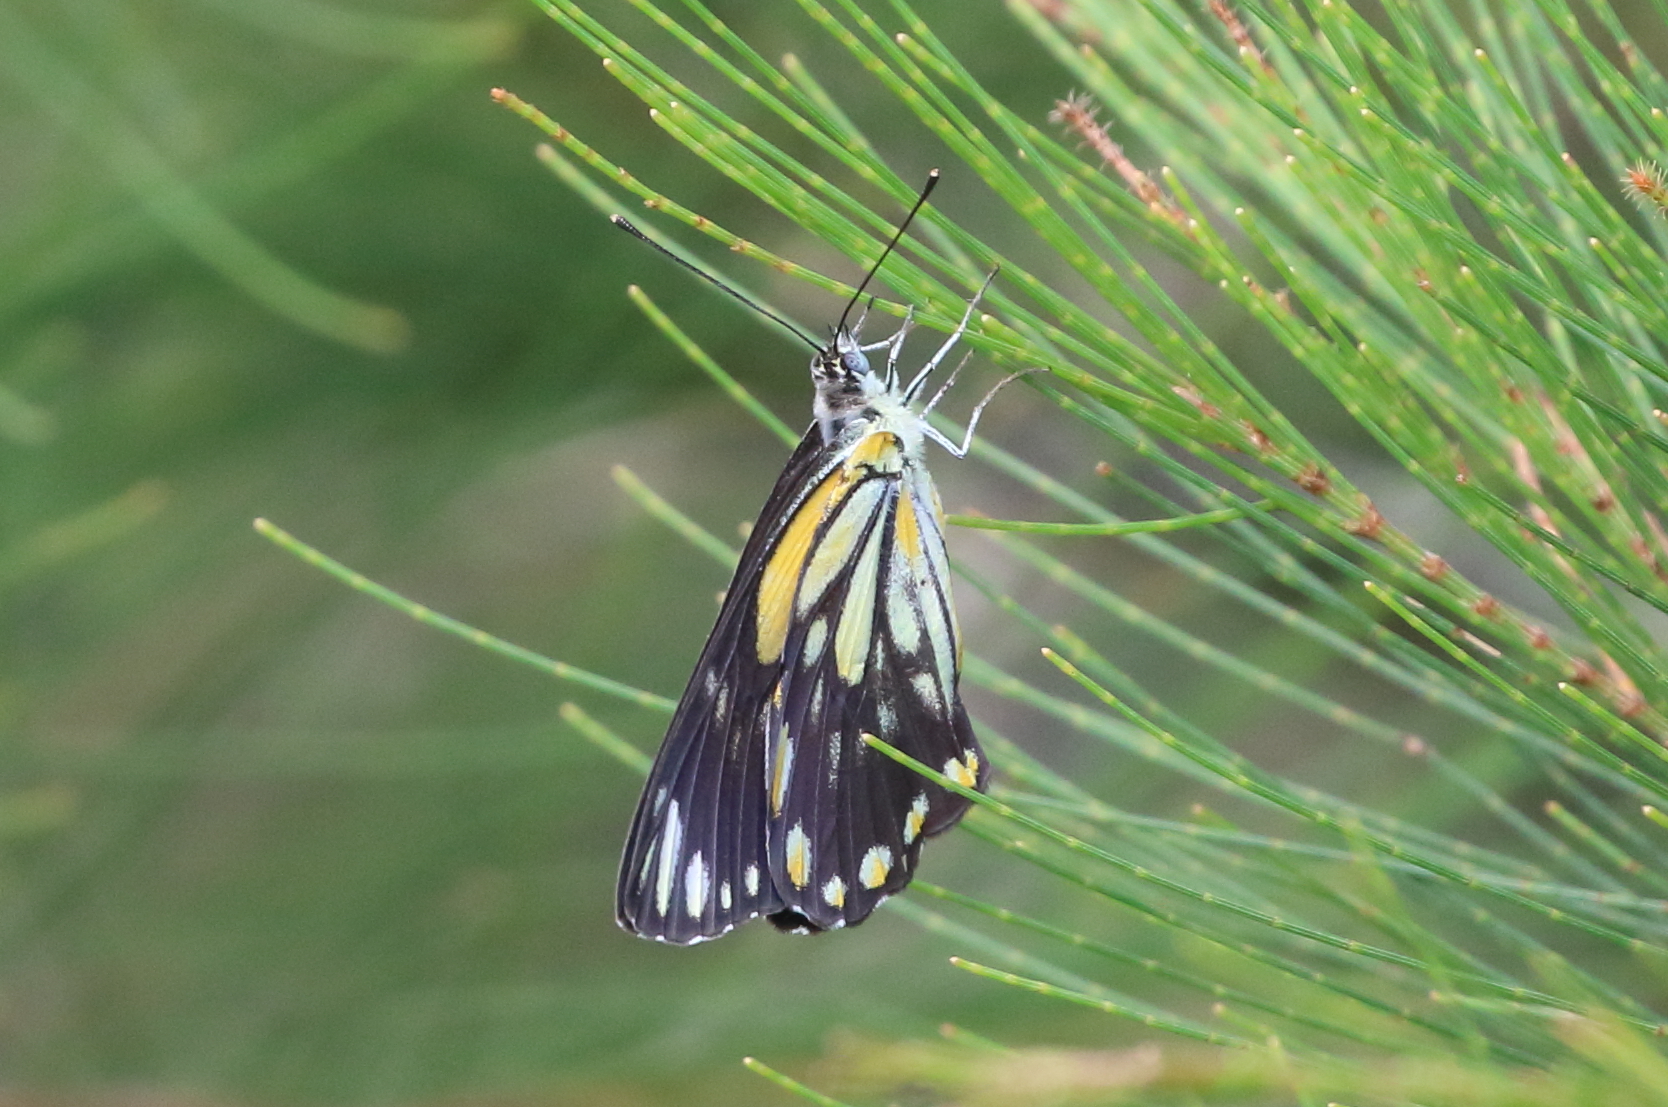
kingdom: Animalia
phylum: Arthropoda
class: Insecta
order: Lepidoptera
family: Pieridae
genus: Belenois
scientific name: Belenois java
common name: Caper white
